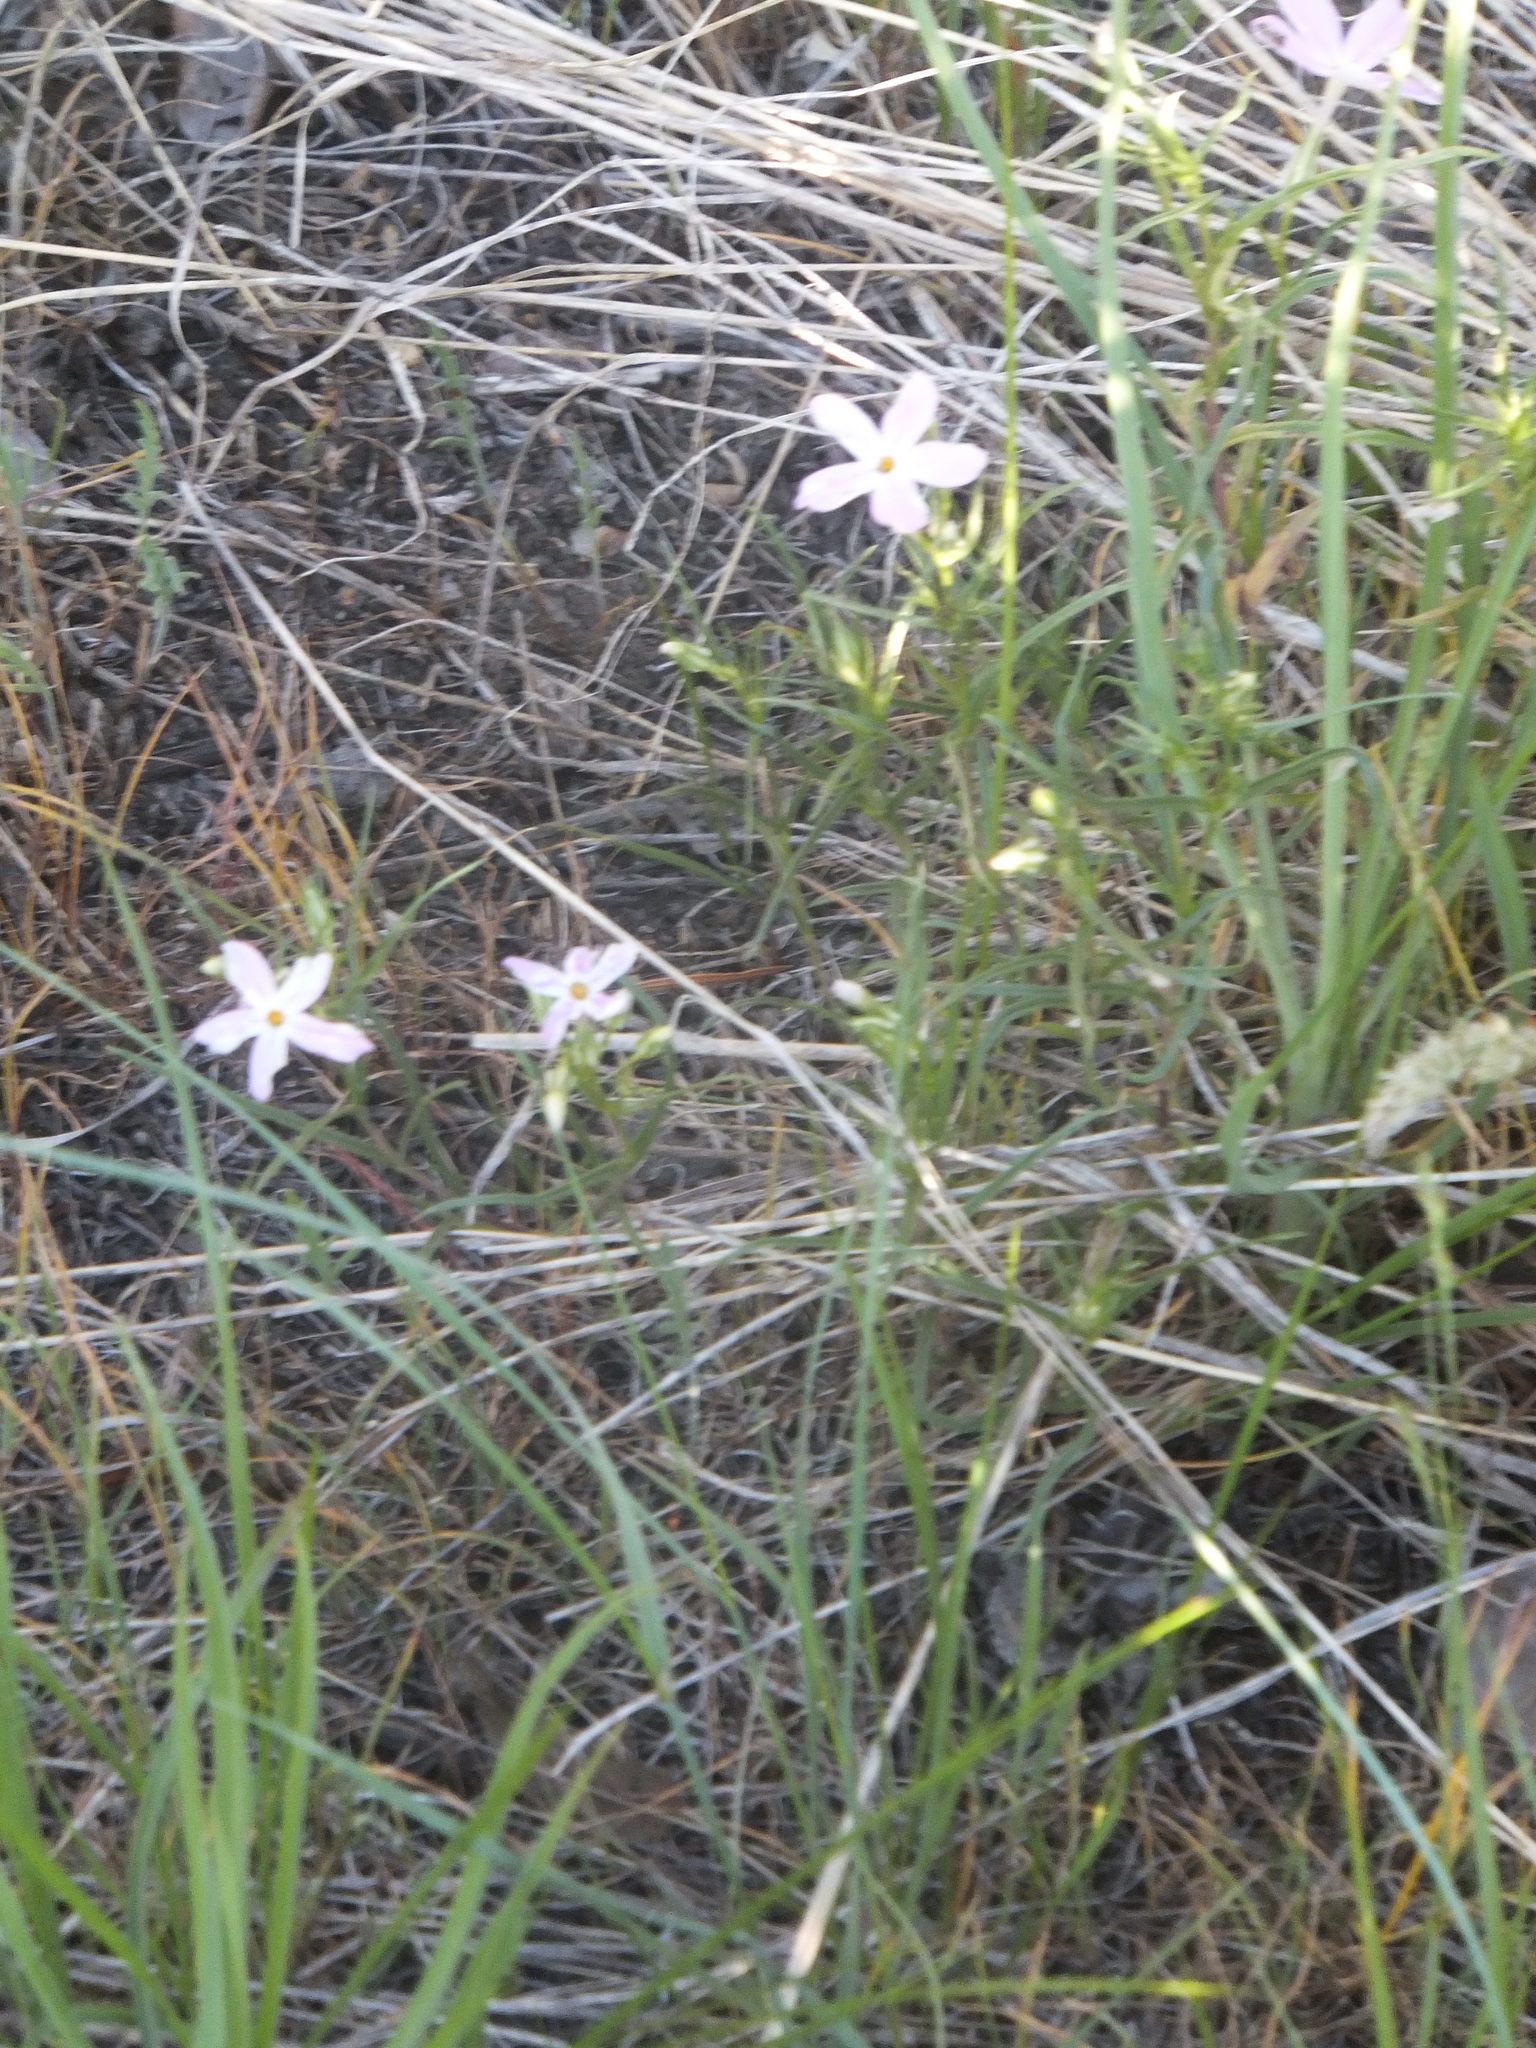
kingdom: Plantae
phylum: Tracheophyta
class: Magnoliopsida
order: Ericales
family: Polemoniaceae
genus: Phlox
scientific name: Phlox longifolia
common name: Longleaf phlox
